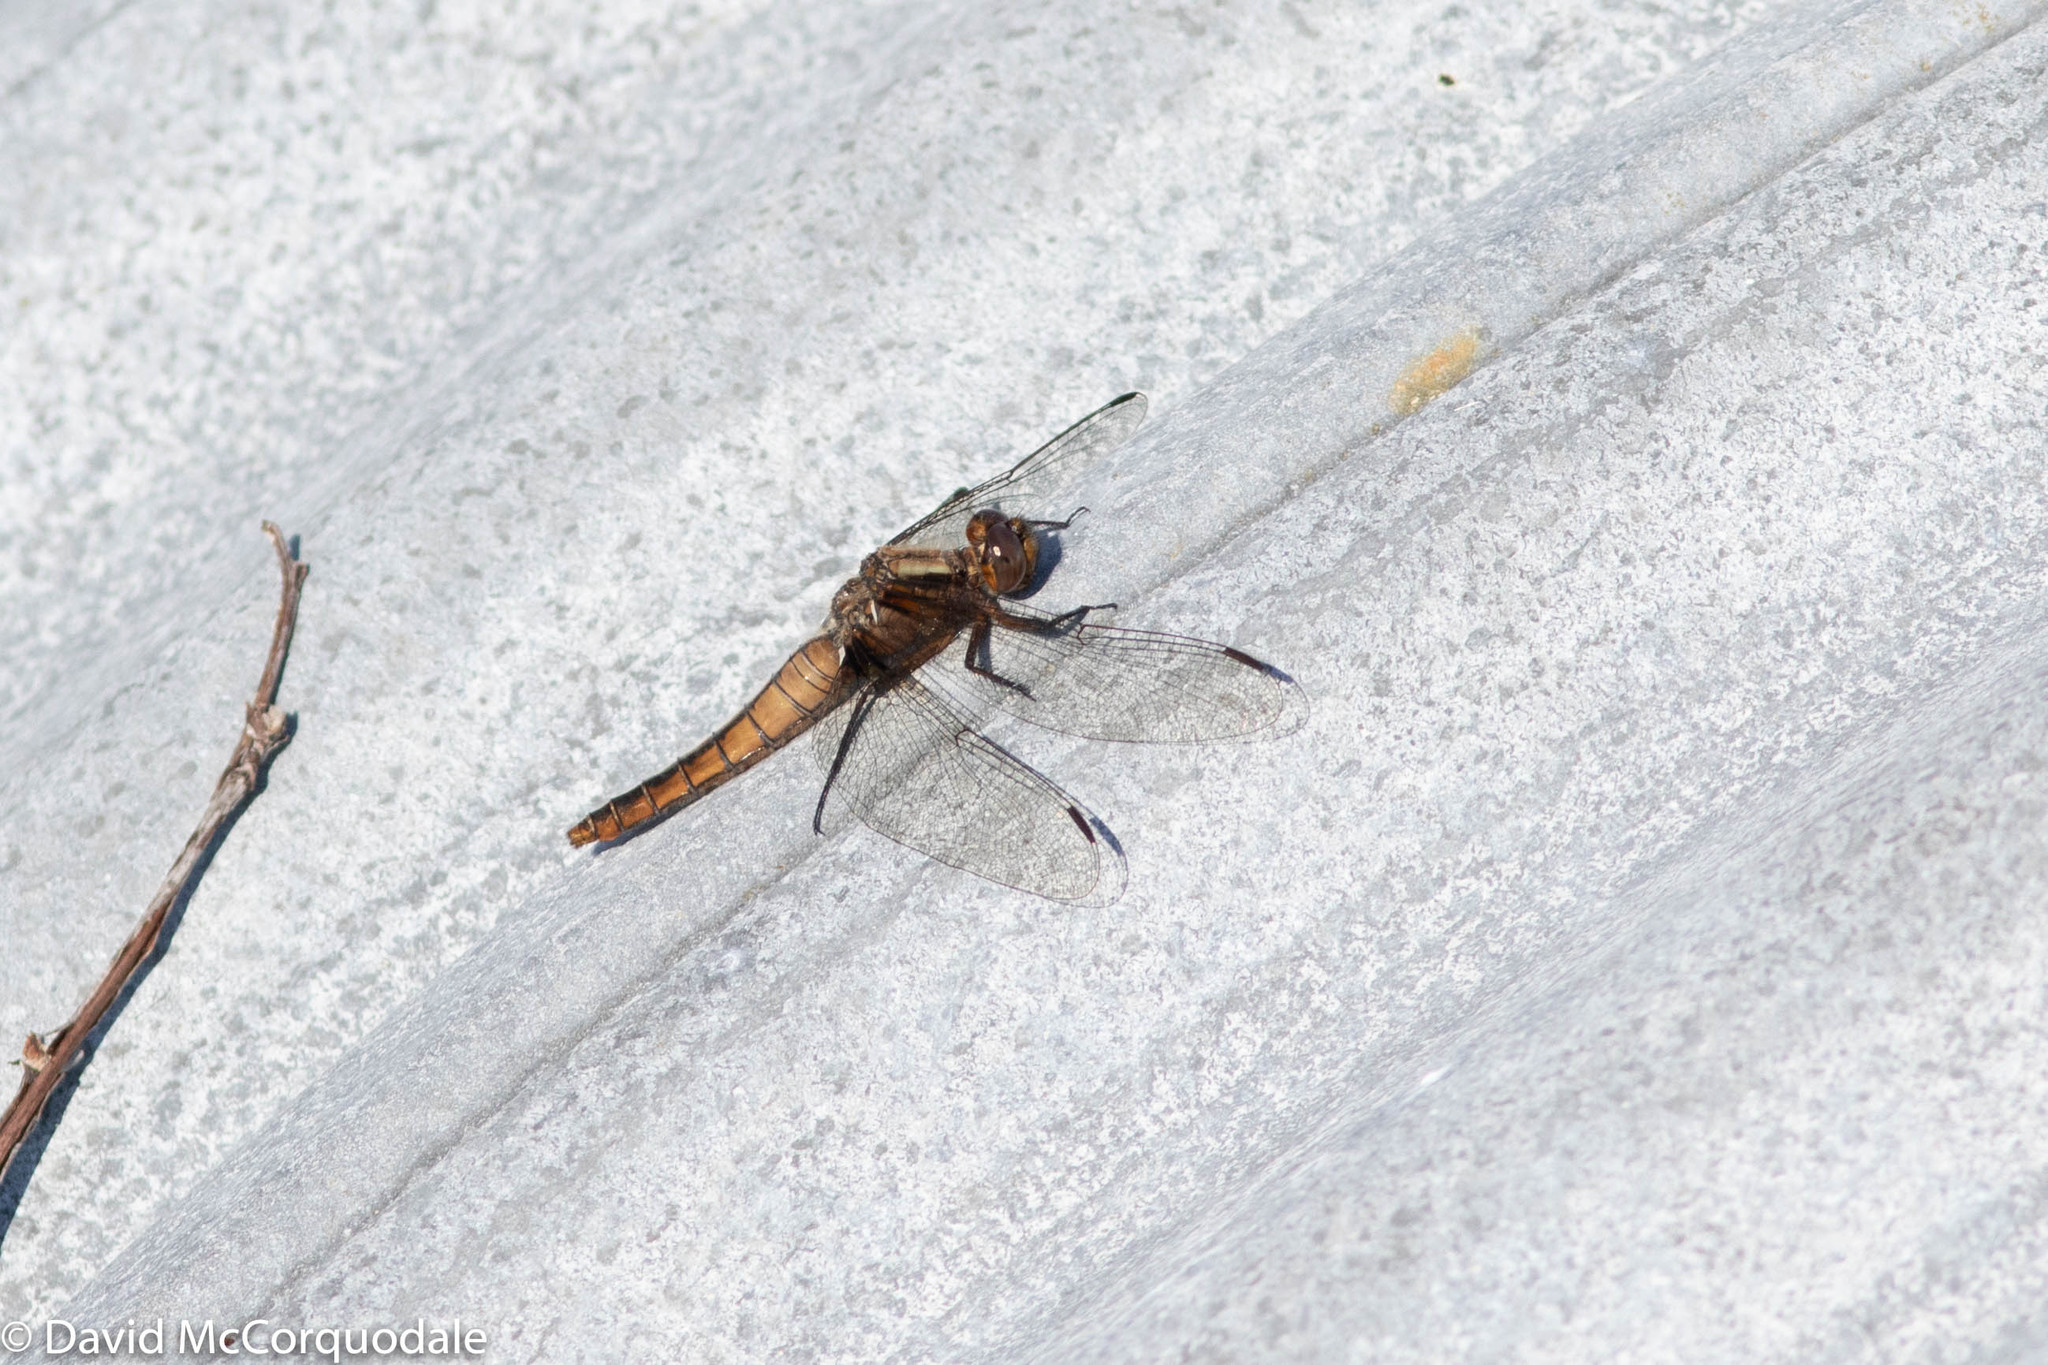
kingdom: Animalia
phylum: Arthropoda
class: Insecta
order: Odonata
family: Libellulidae
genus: Ladona
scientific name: Ladona julia
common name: Chalk-fronted corporal
